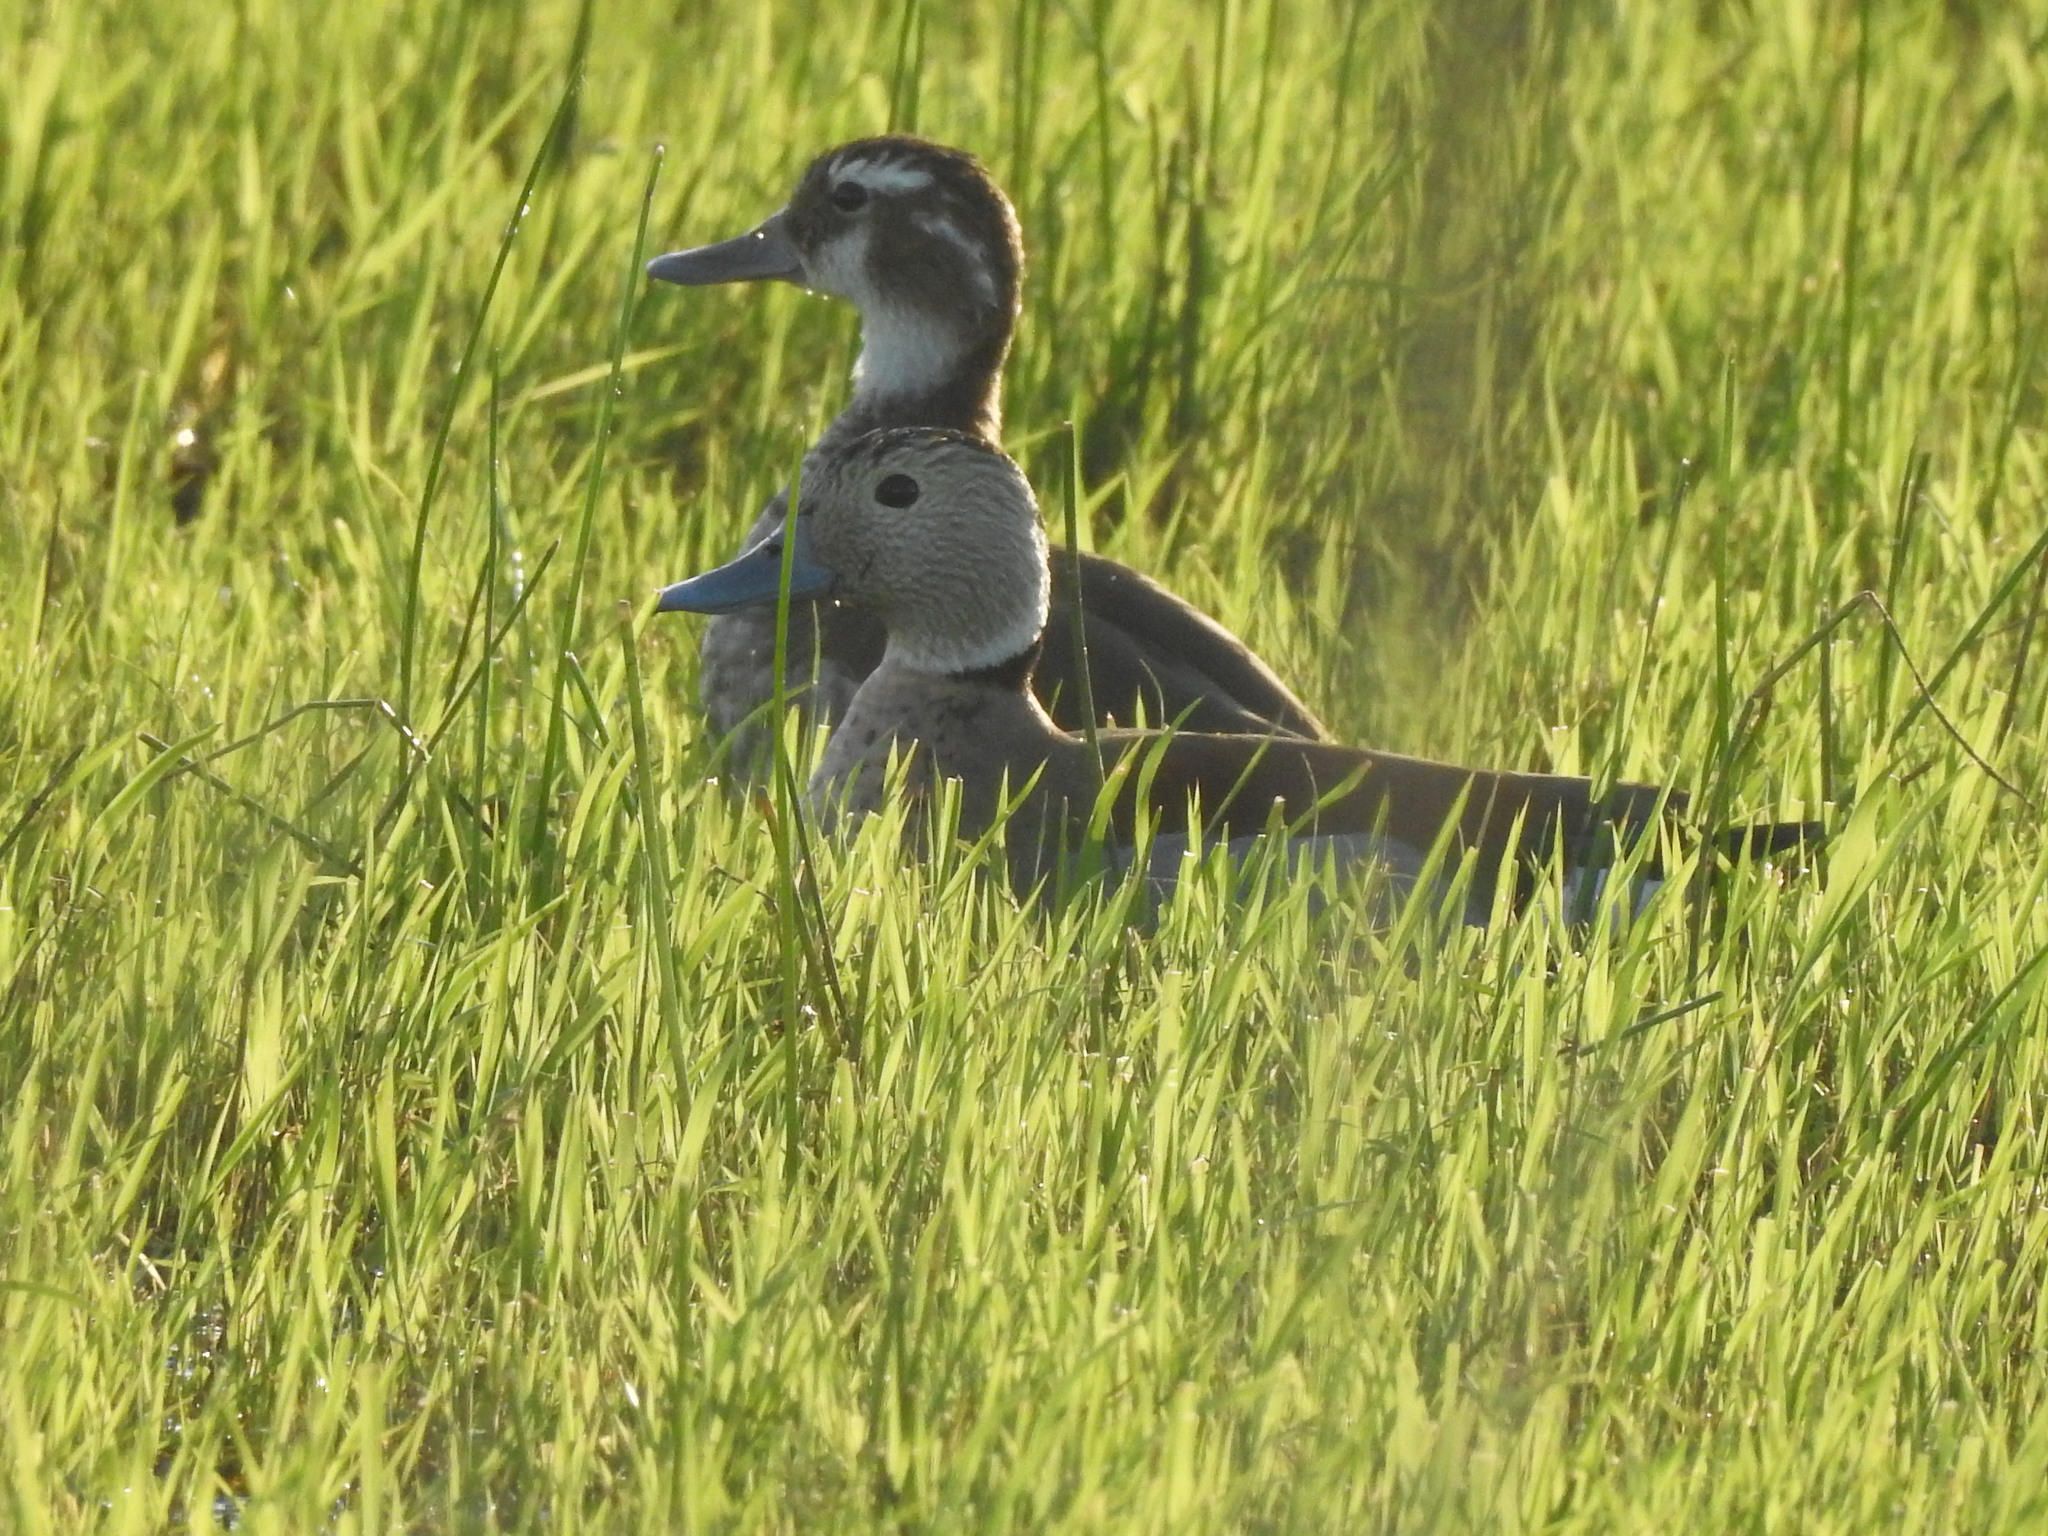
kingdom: Animalia
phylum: Chordata
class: Aves
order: Anseriformes
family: Anatidae
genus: Callonetta
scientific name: Callonetta leucophrys
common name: Ringed teal
